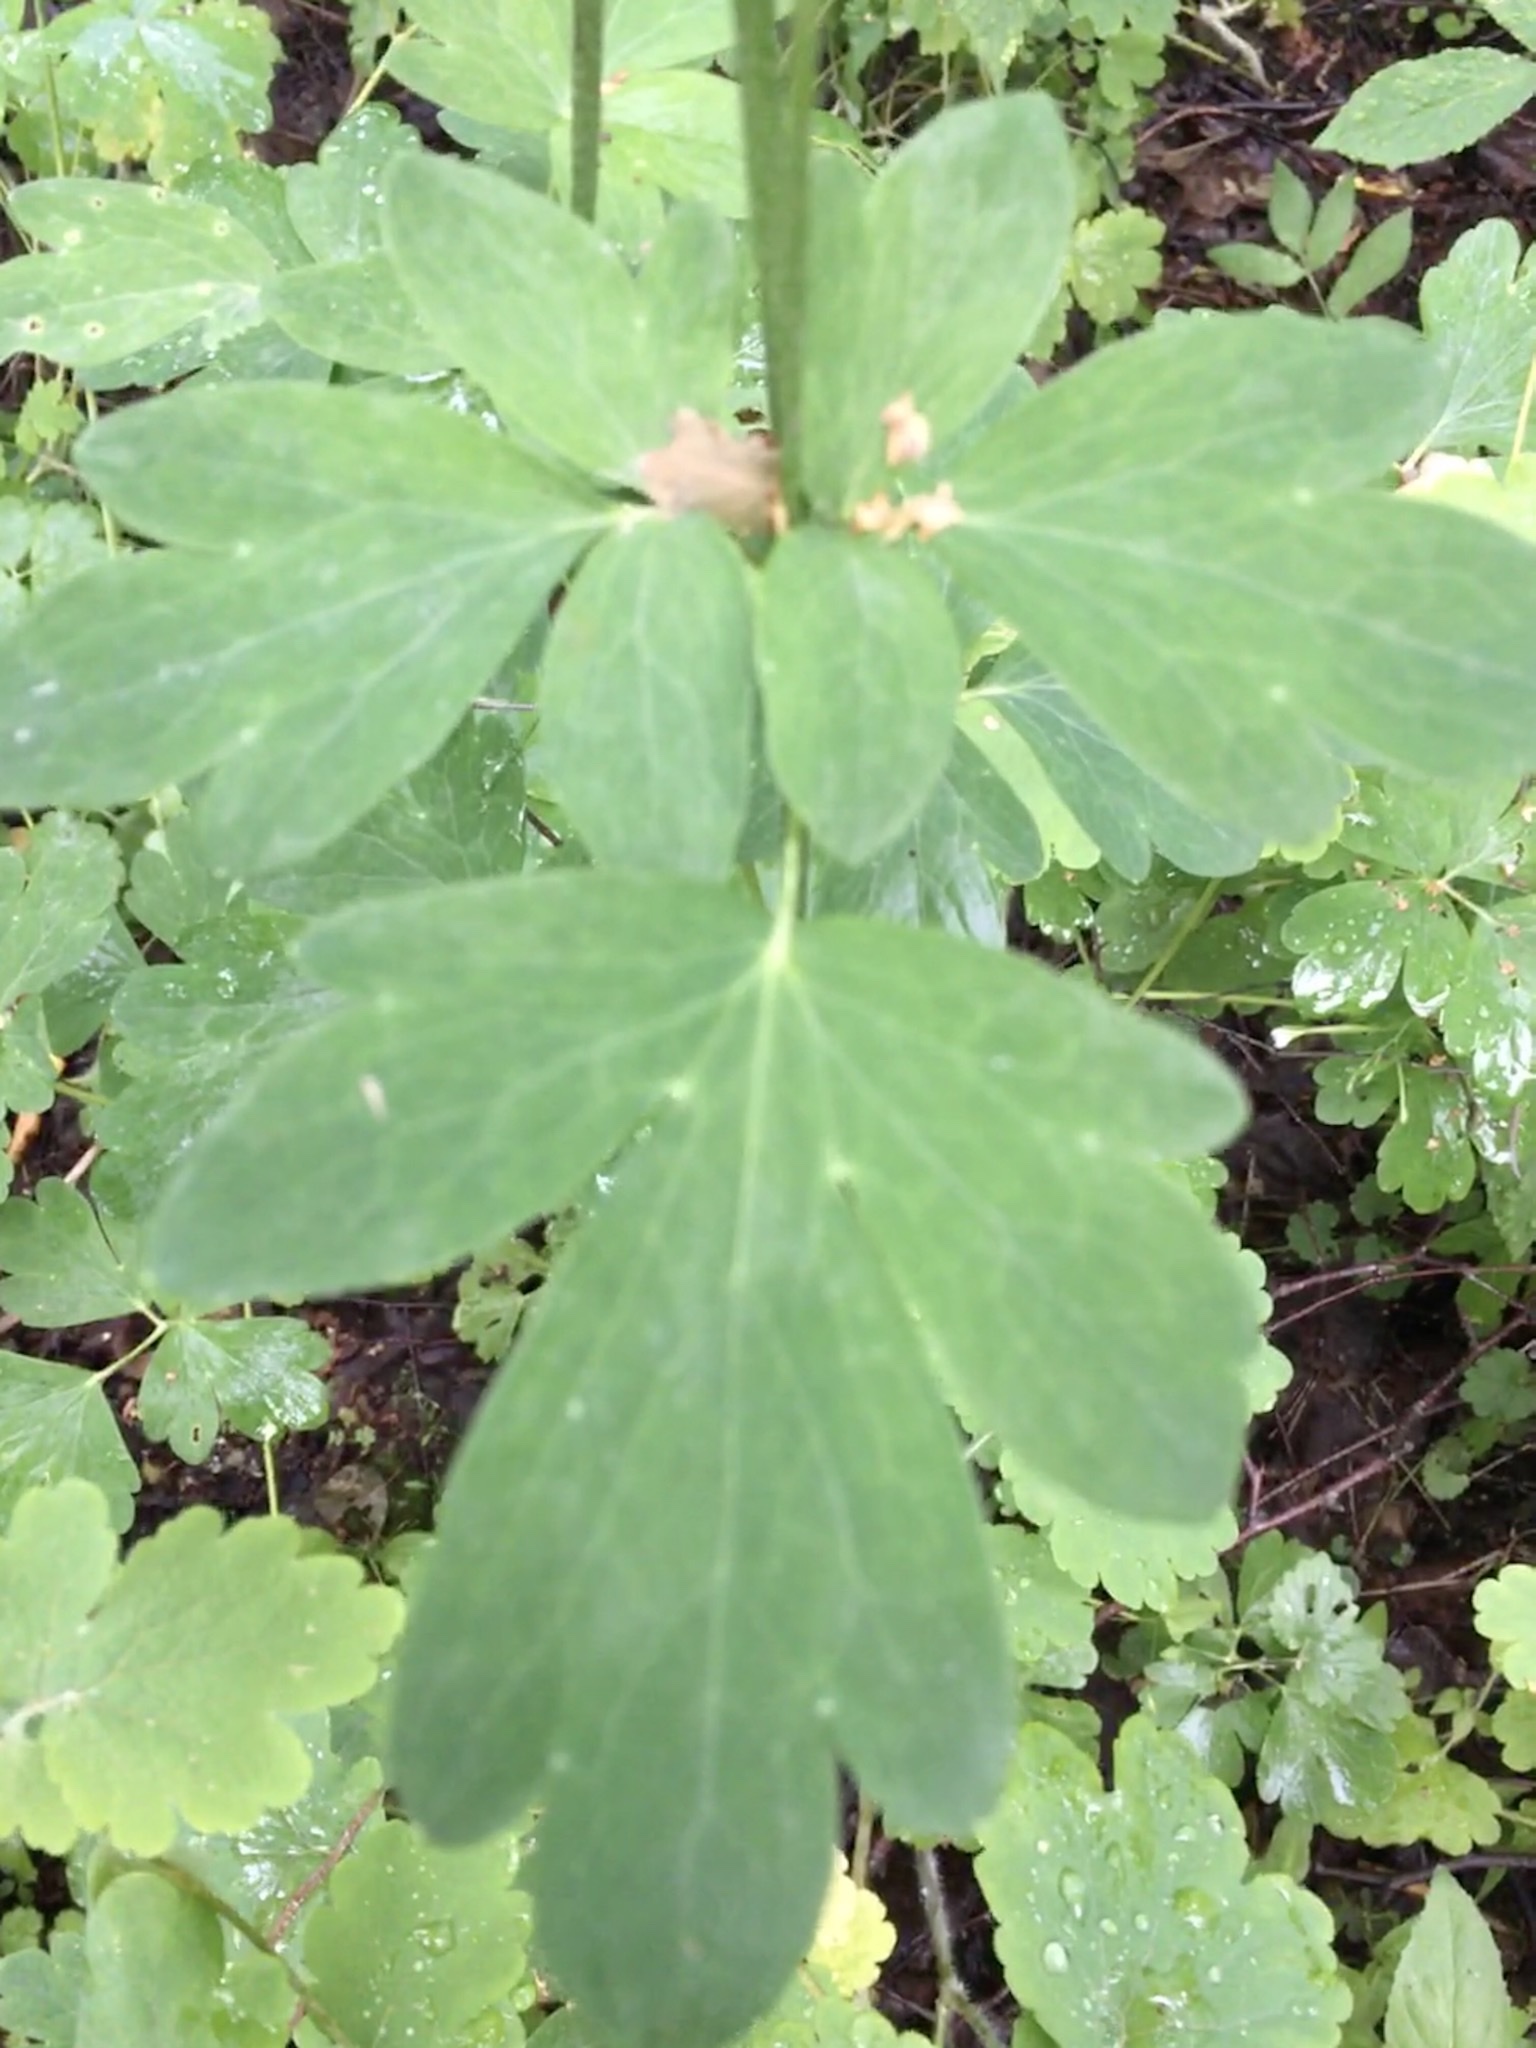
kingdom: Plantae
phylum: Tracheophyta
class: Magnoliopsida
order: Ranunculales
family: Ranunculaceae
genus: Aquilegia
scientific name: Aquilegia vulgaris
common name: Columbine
